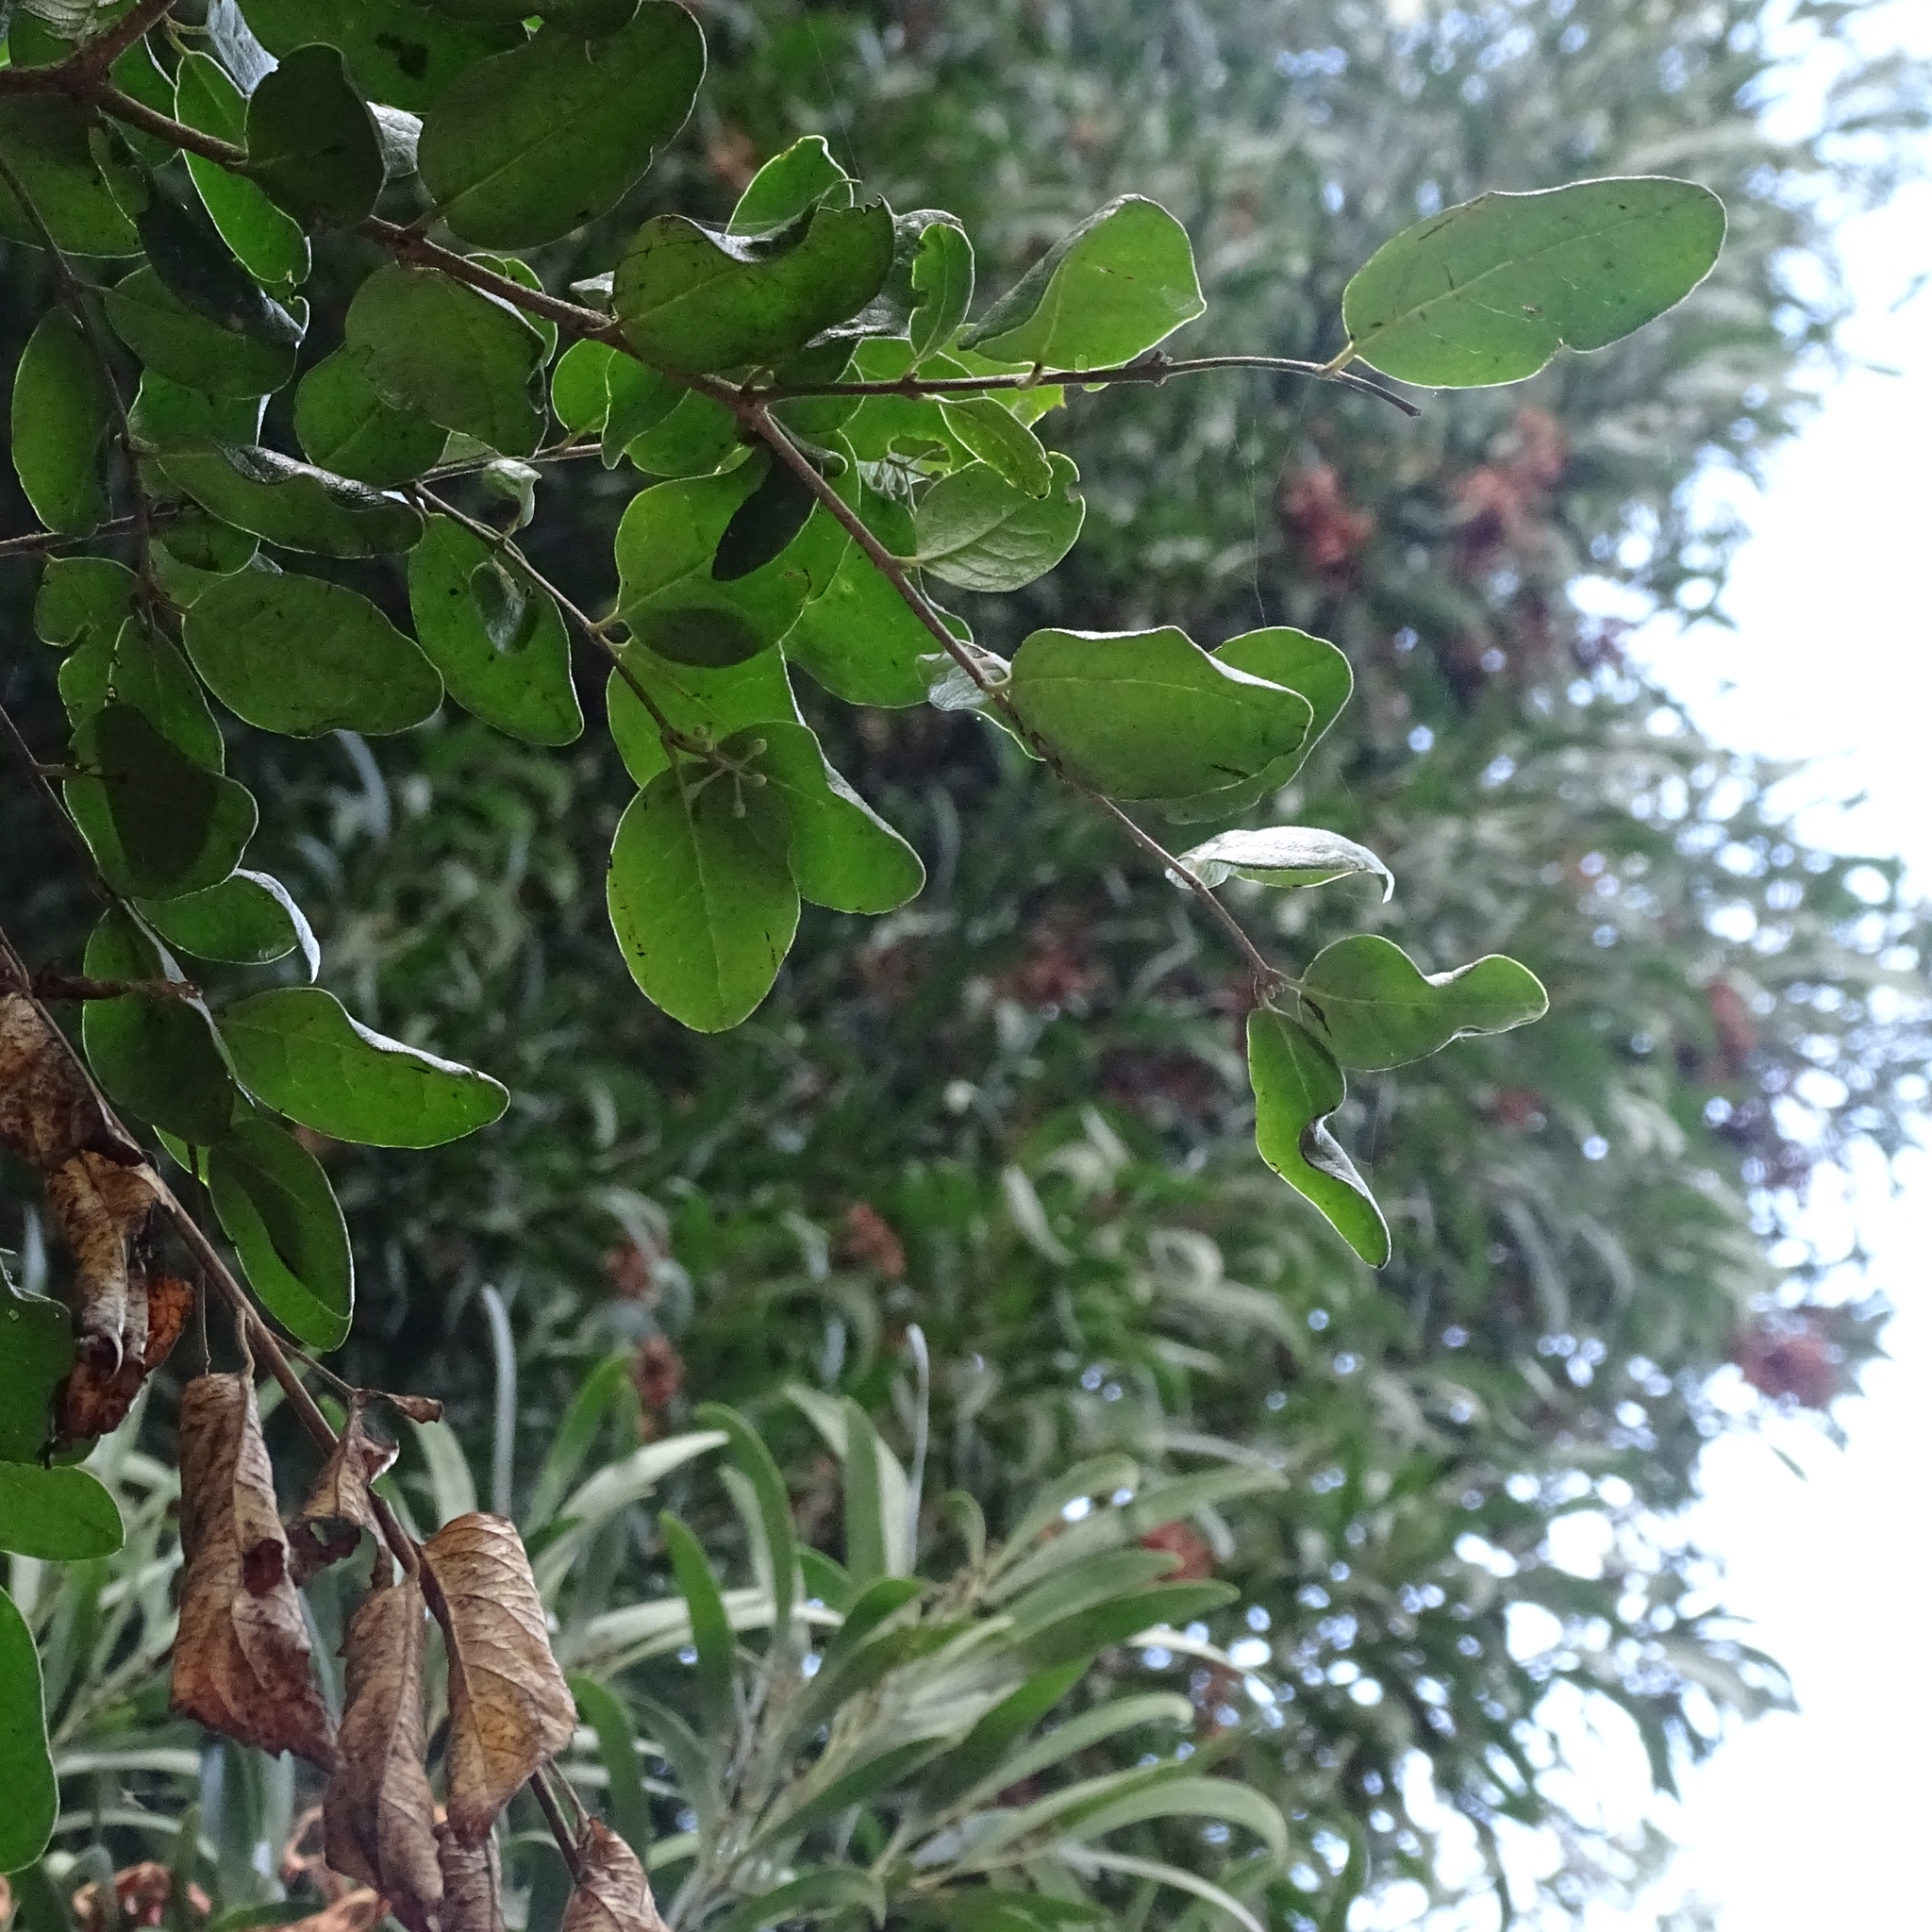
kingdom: Plantae
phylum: Tracheophyta
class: Magnoliopsida
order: Laurales
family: Monimiaceae
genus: Peumus
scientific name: Peumus boldus
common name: Boldo
